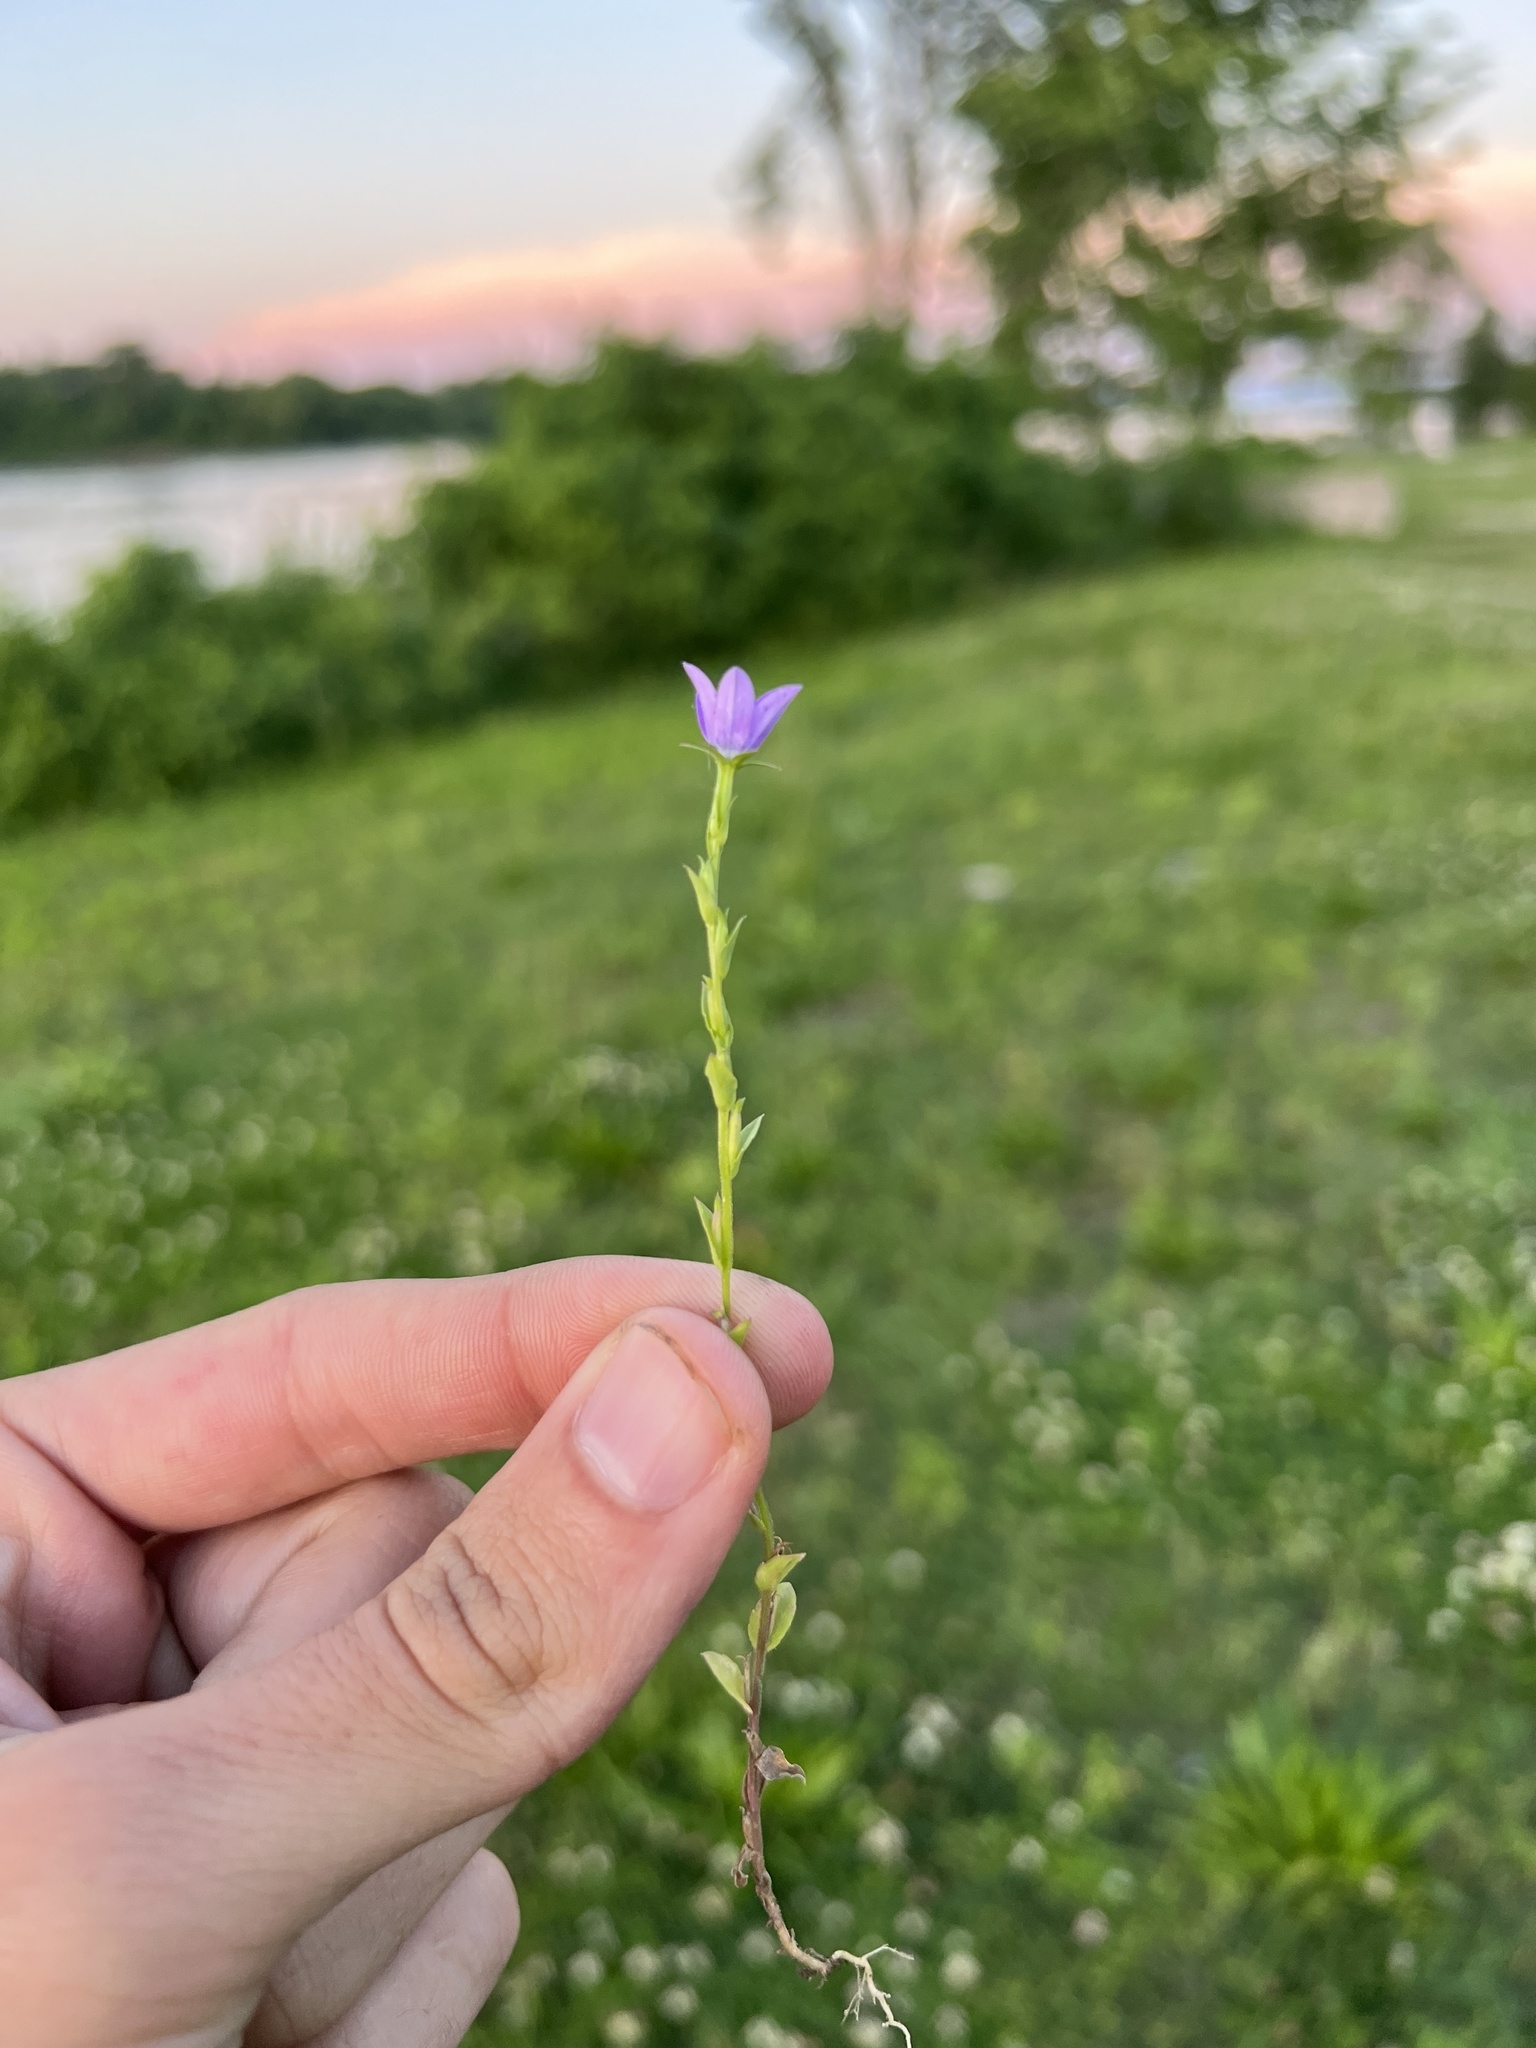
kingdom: Plantae
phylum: Tracheophyta
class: Magnoliopsida
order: Asterales
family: Campanulaceae
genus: Triodanis
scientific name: Triodanis biflora
